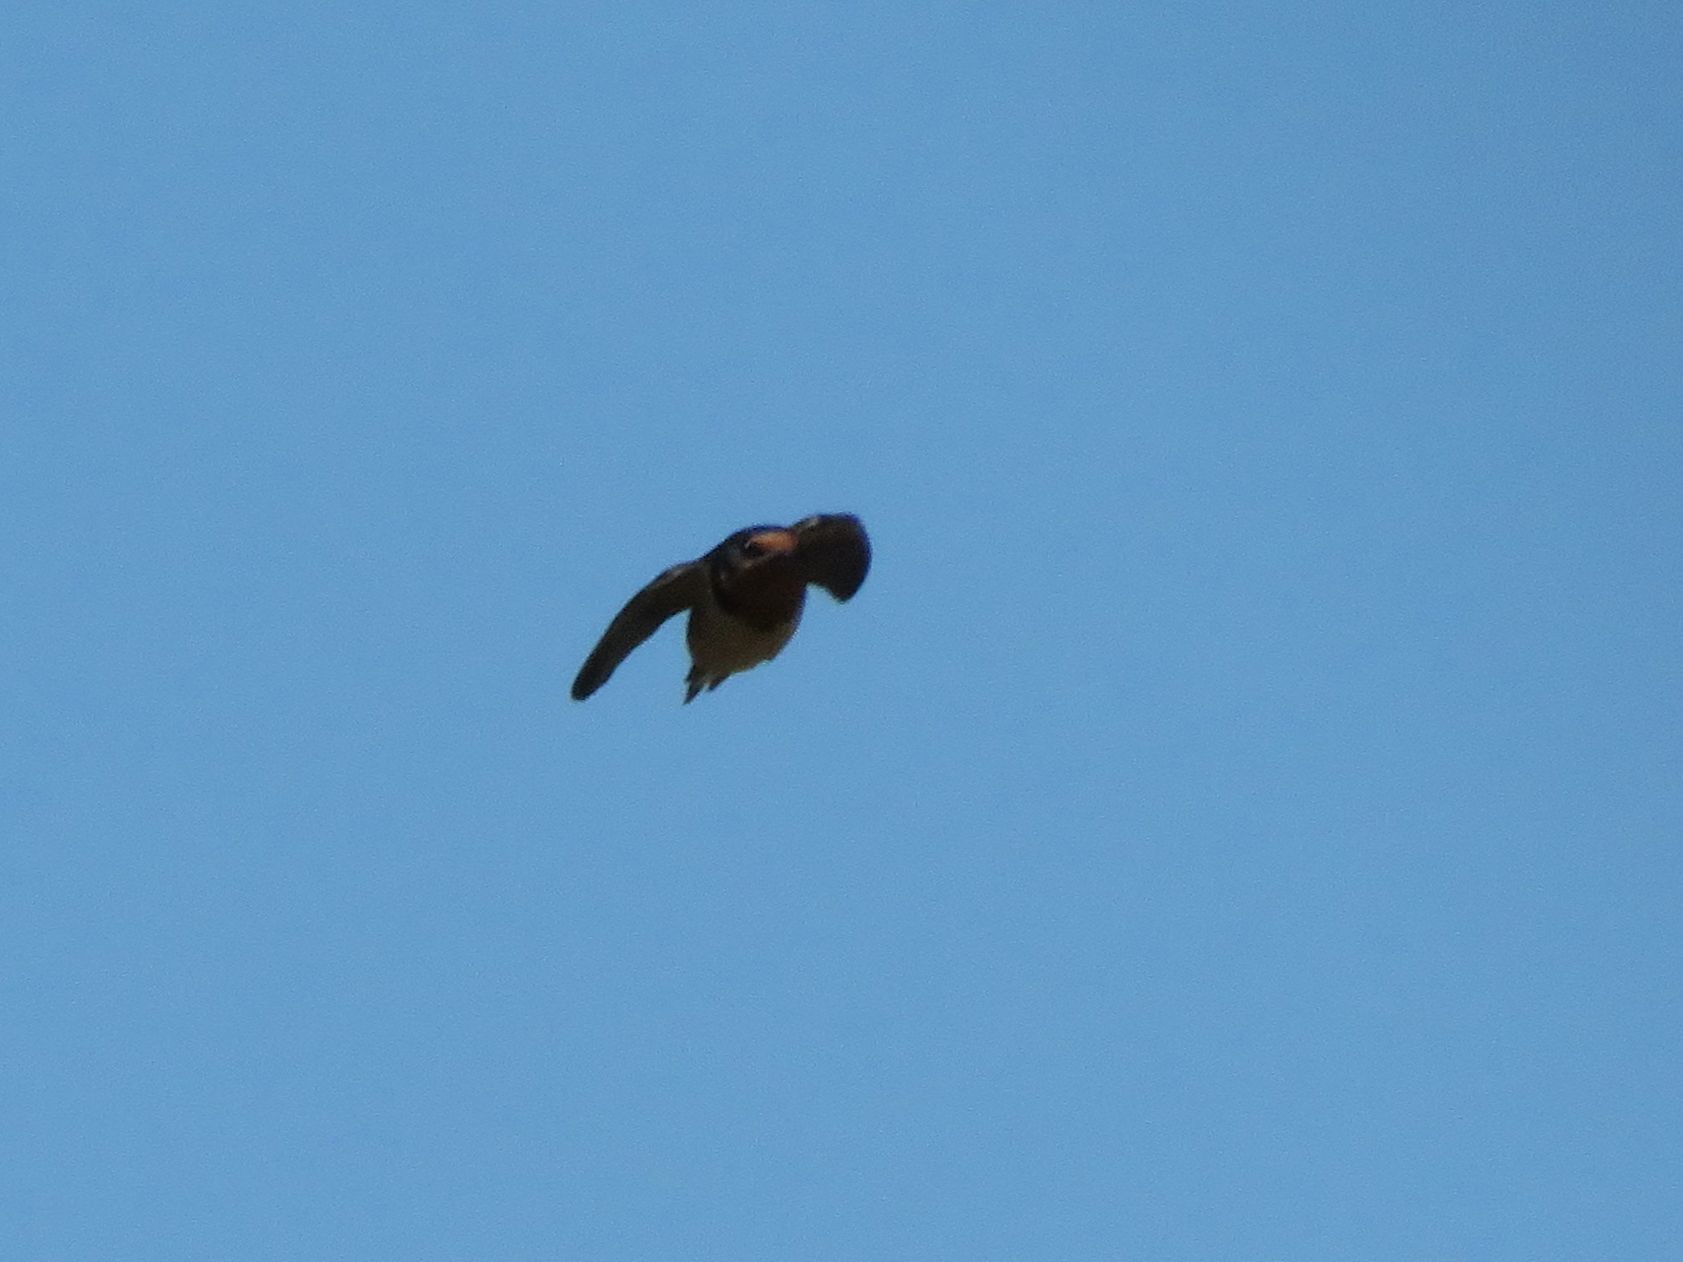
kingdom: Animalia
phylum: Chordata
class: Aves
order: Passeriformes
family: Hirundinidae
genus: Hirundo
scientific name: Hirundo rustica
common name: Barn swallow
